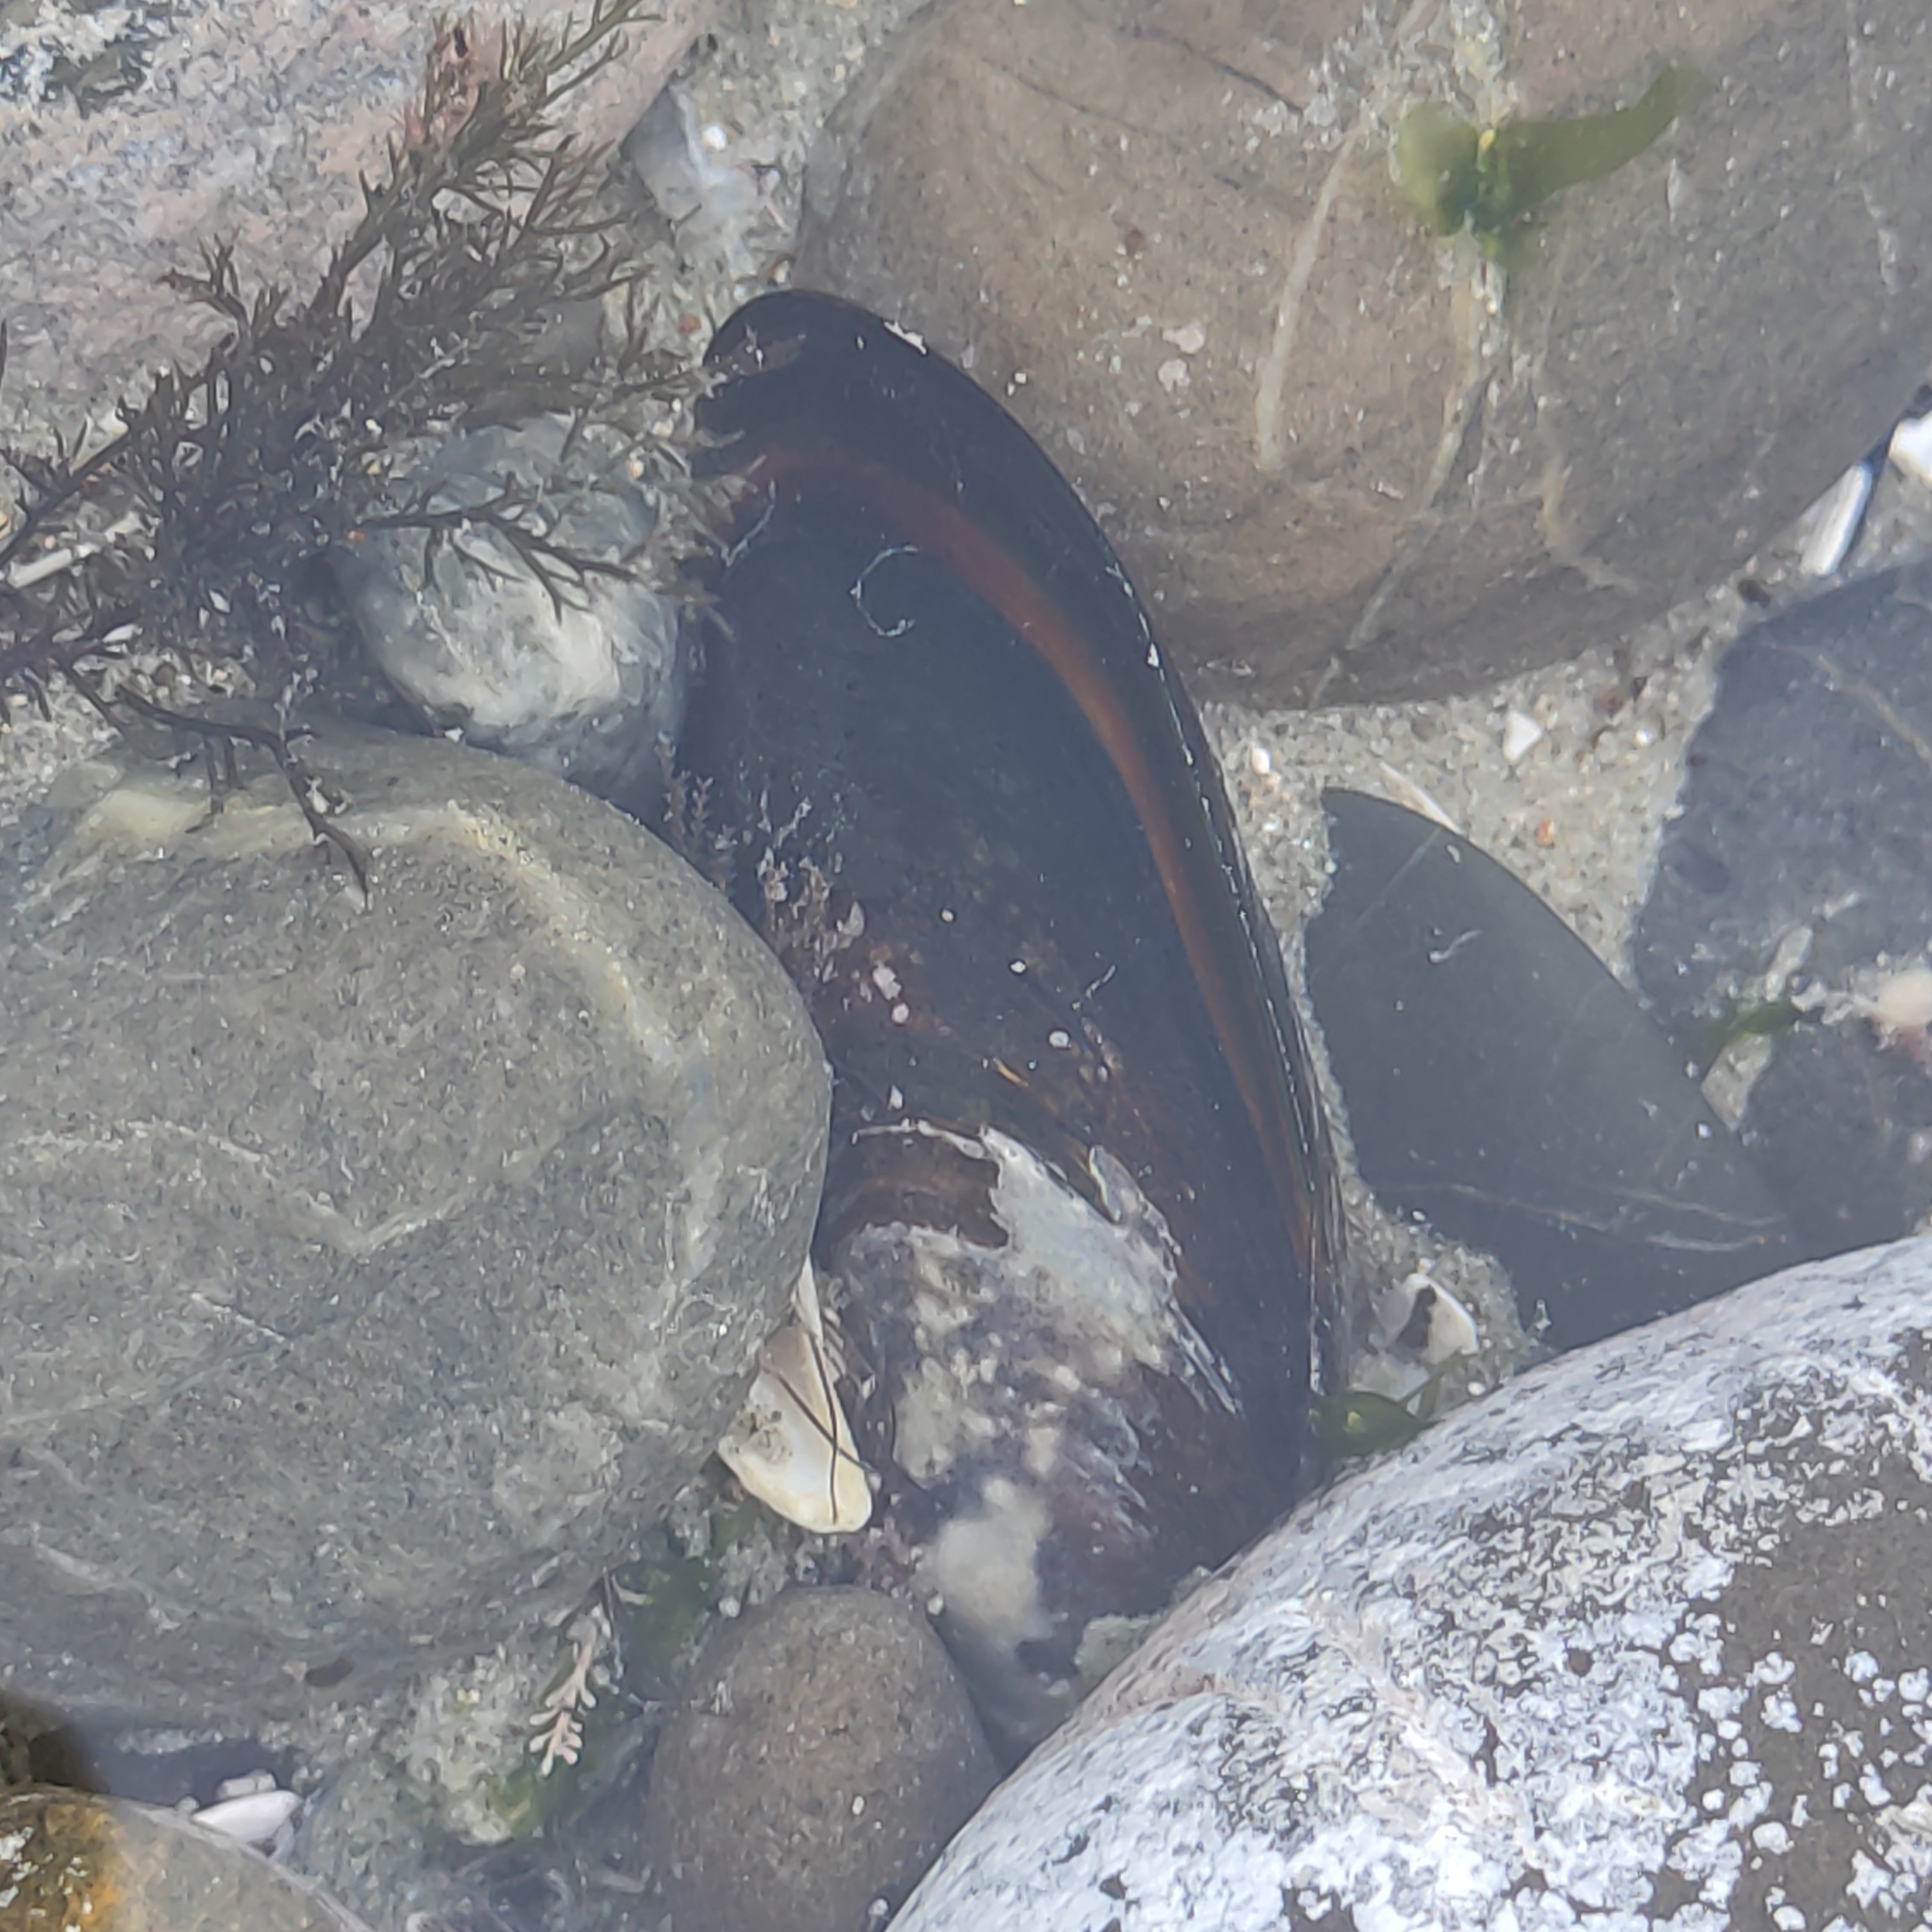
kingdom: Animalia
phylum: Mollusca
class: Bivalvia
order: Mytilida
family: Mytilidae
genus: Perna
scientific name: Perna canaliculus
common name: New zealand greenshelltm
